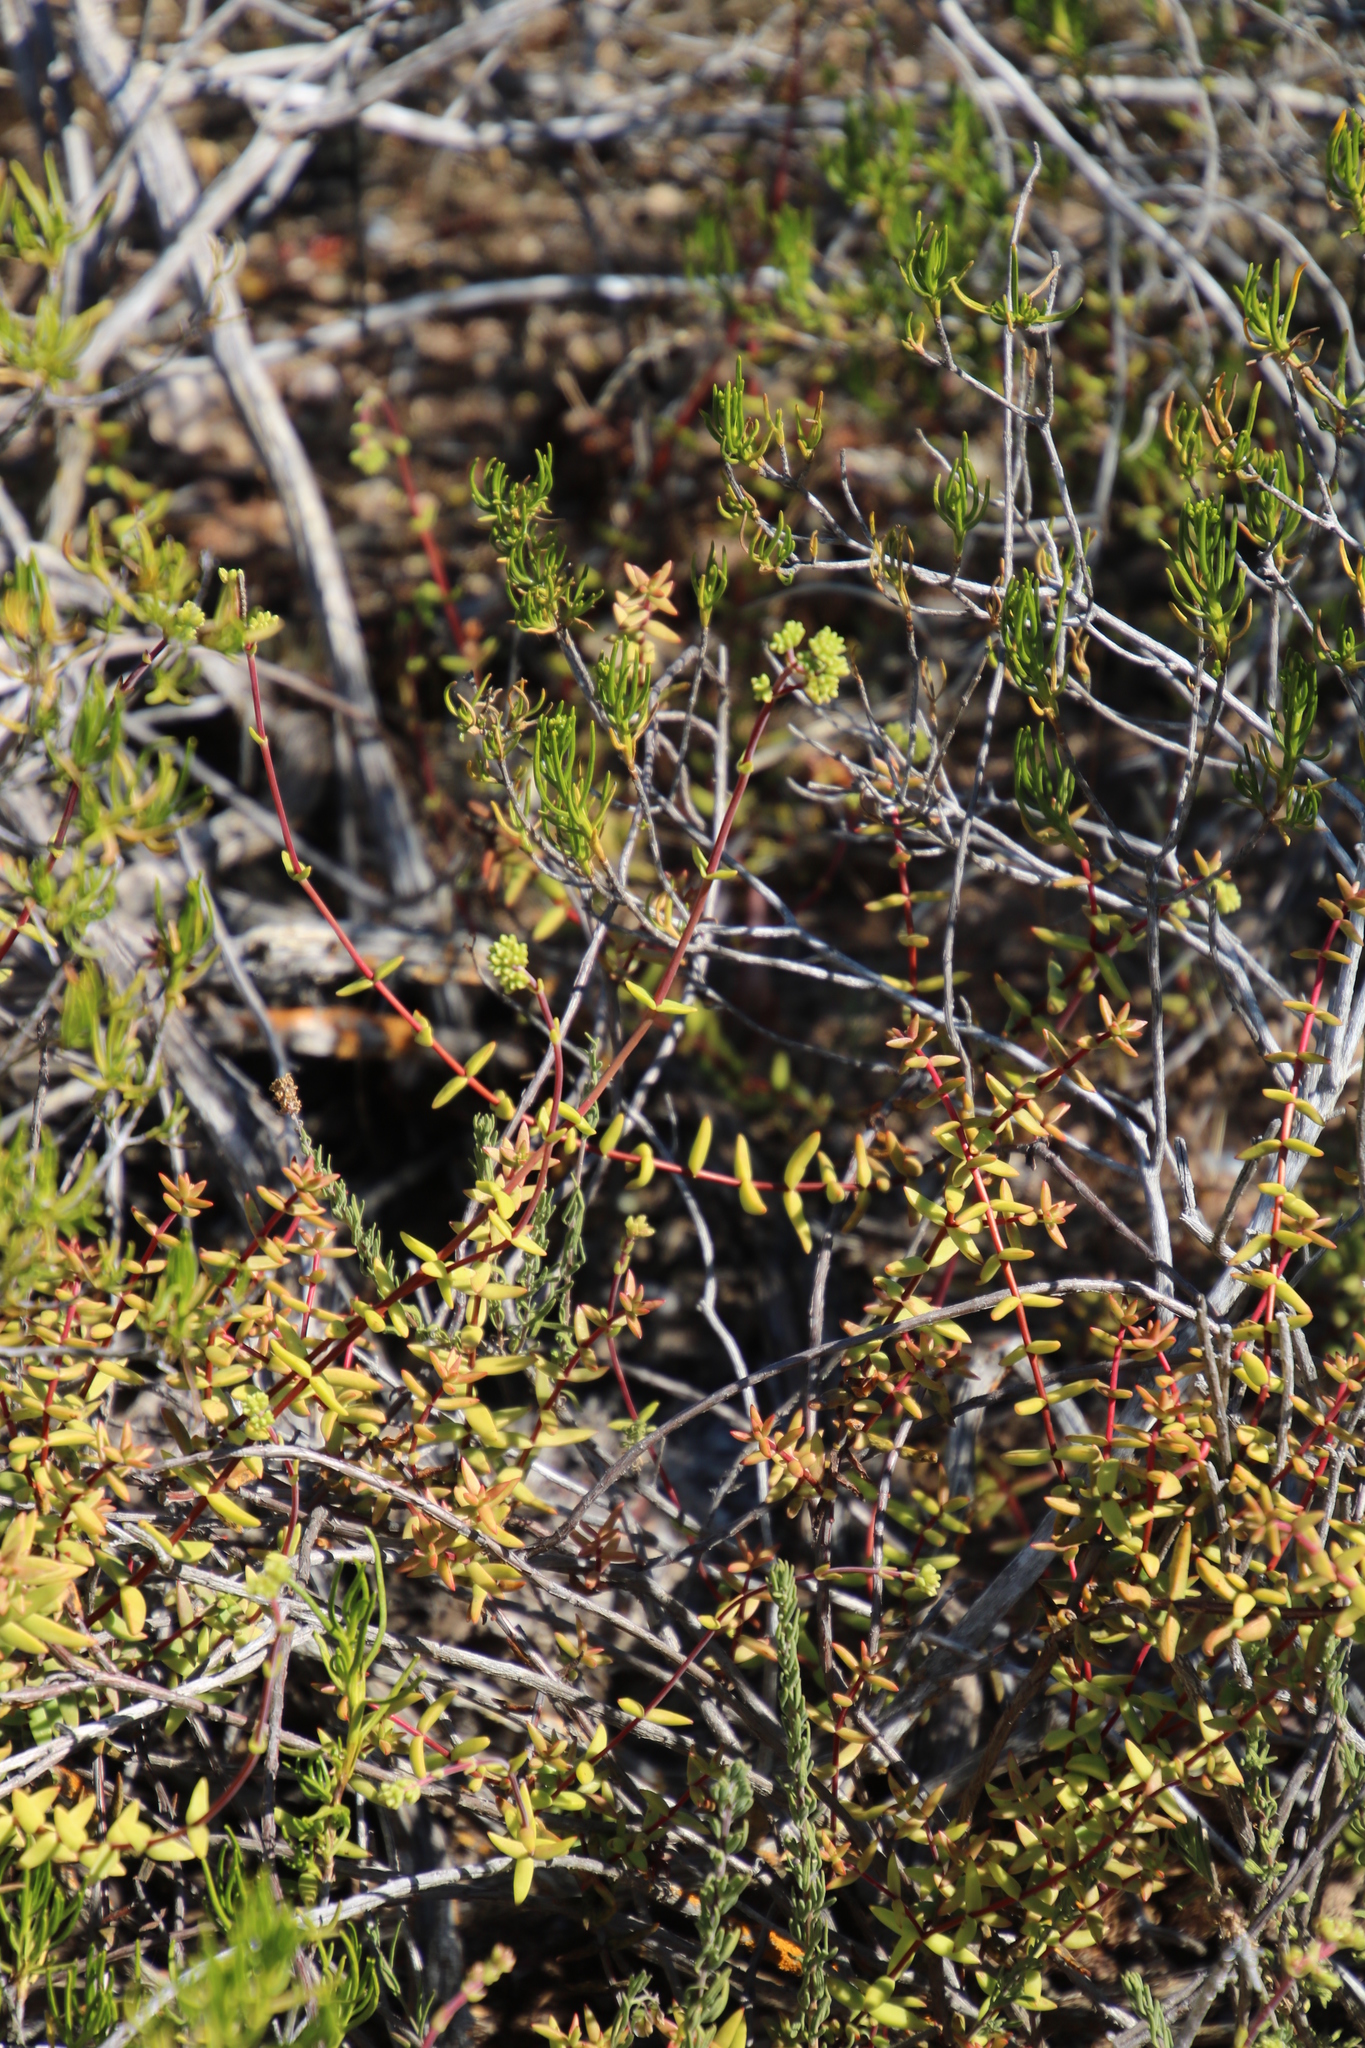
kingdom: Plantae
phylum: Tracheophyta
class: Magnoliopsida
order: Saxifragales
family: Crassulaceae
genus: Crassula
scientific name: Crassula subaphylla
